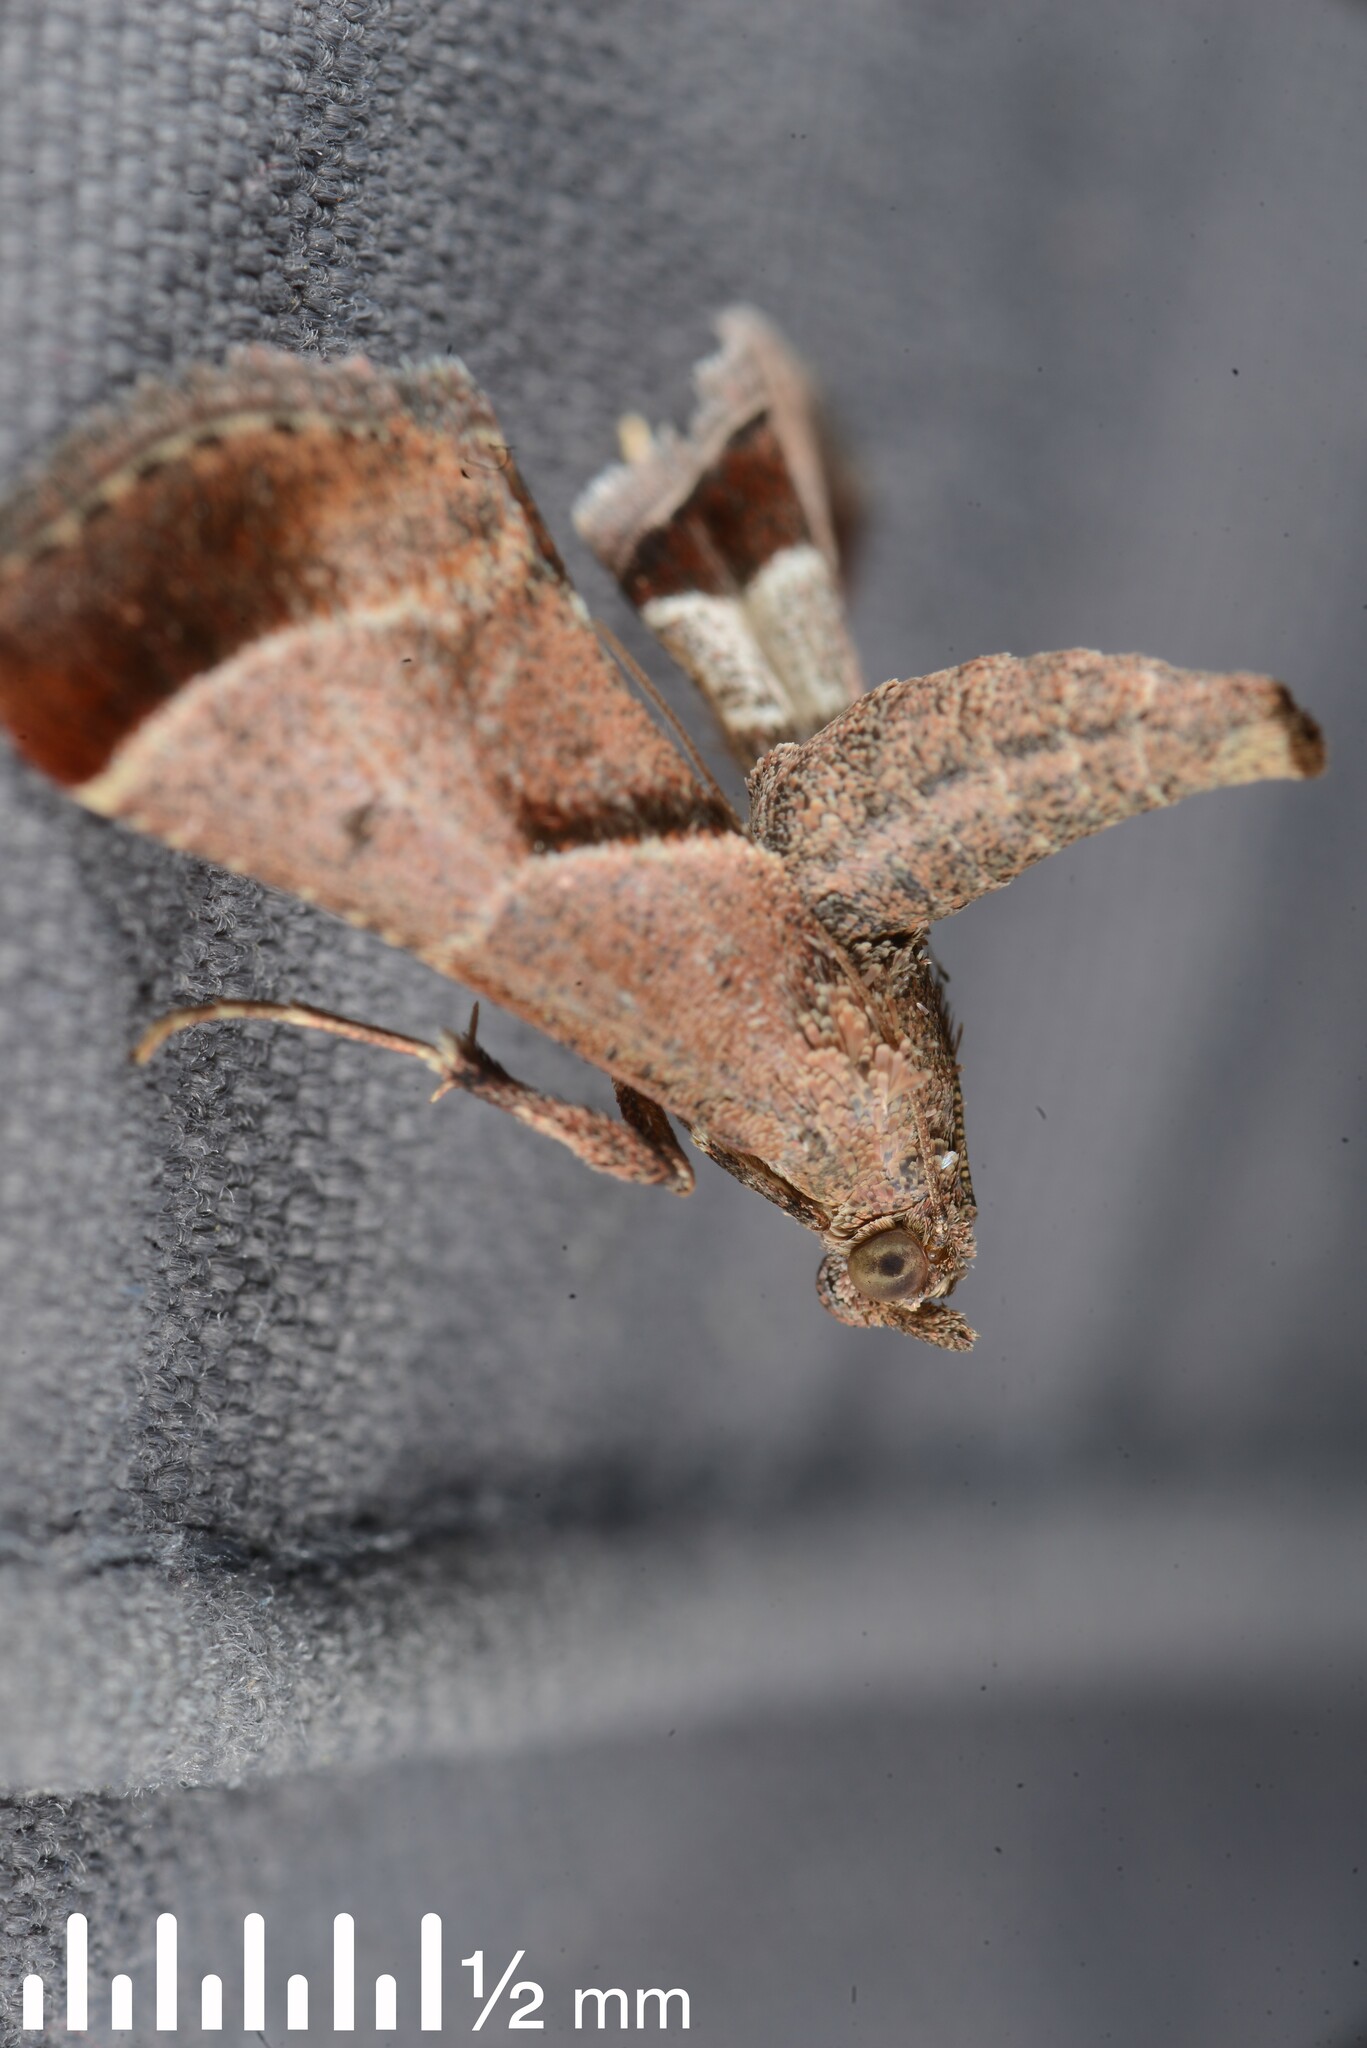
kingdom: Animalia
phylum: Arthropoda
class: Insecta
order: Lepidoptera
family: Pyralidae
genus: Gauna
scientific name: Gauna aegusalis
